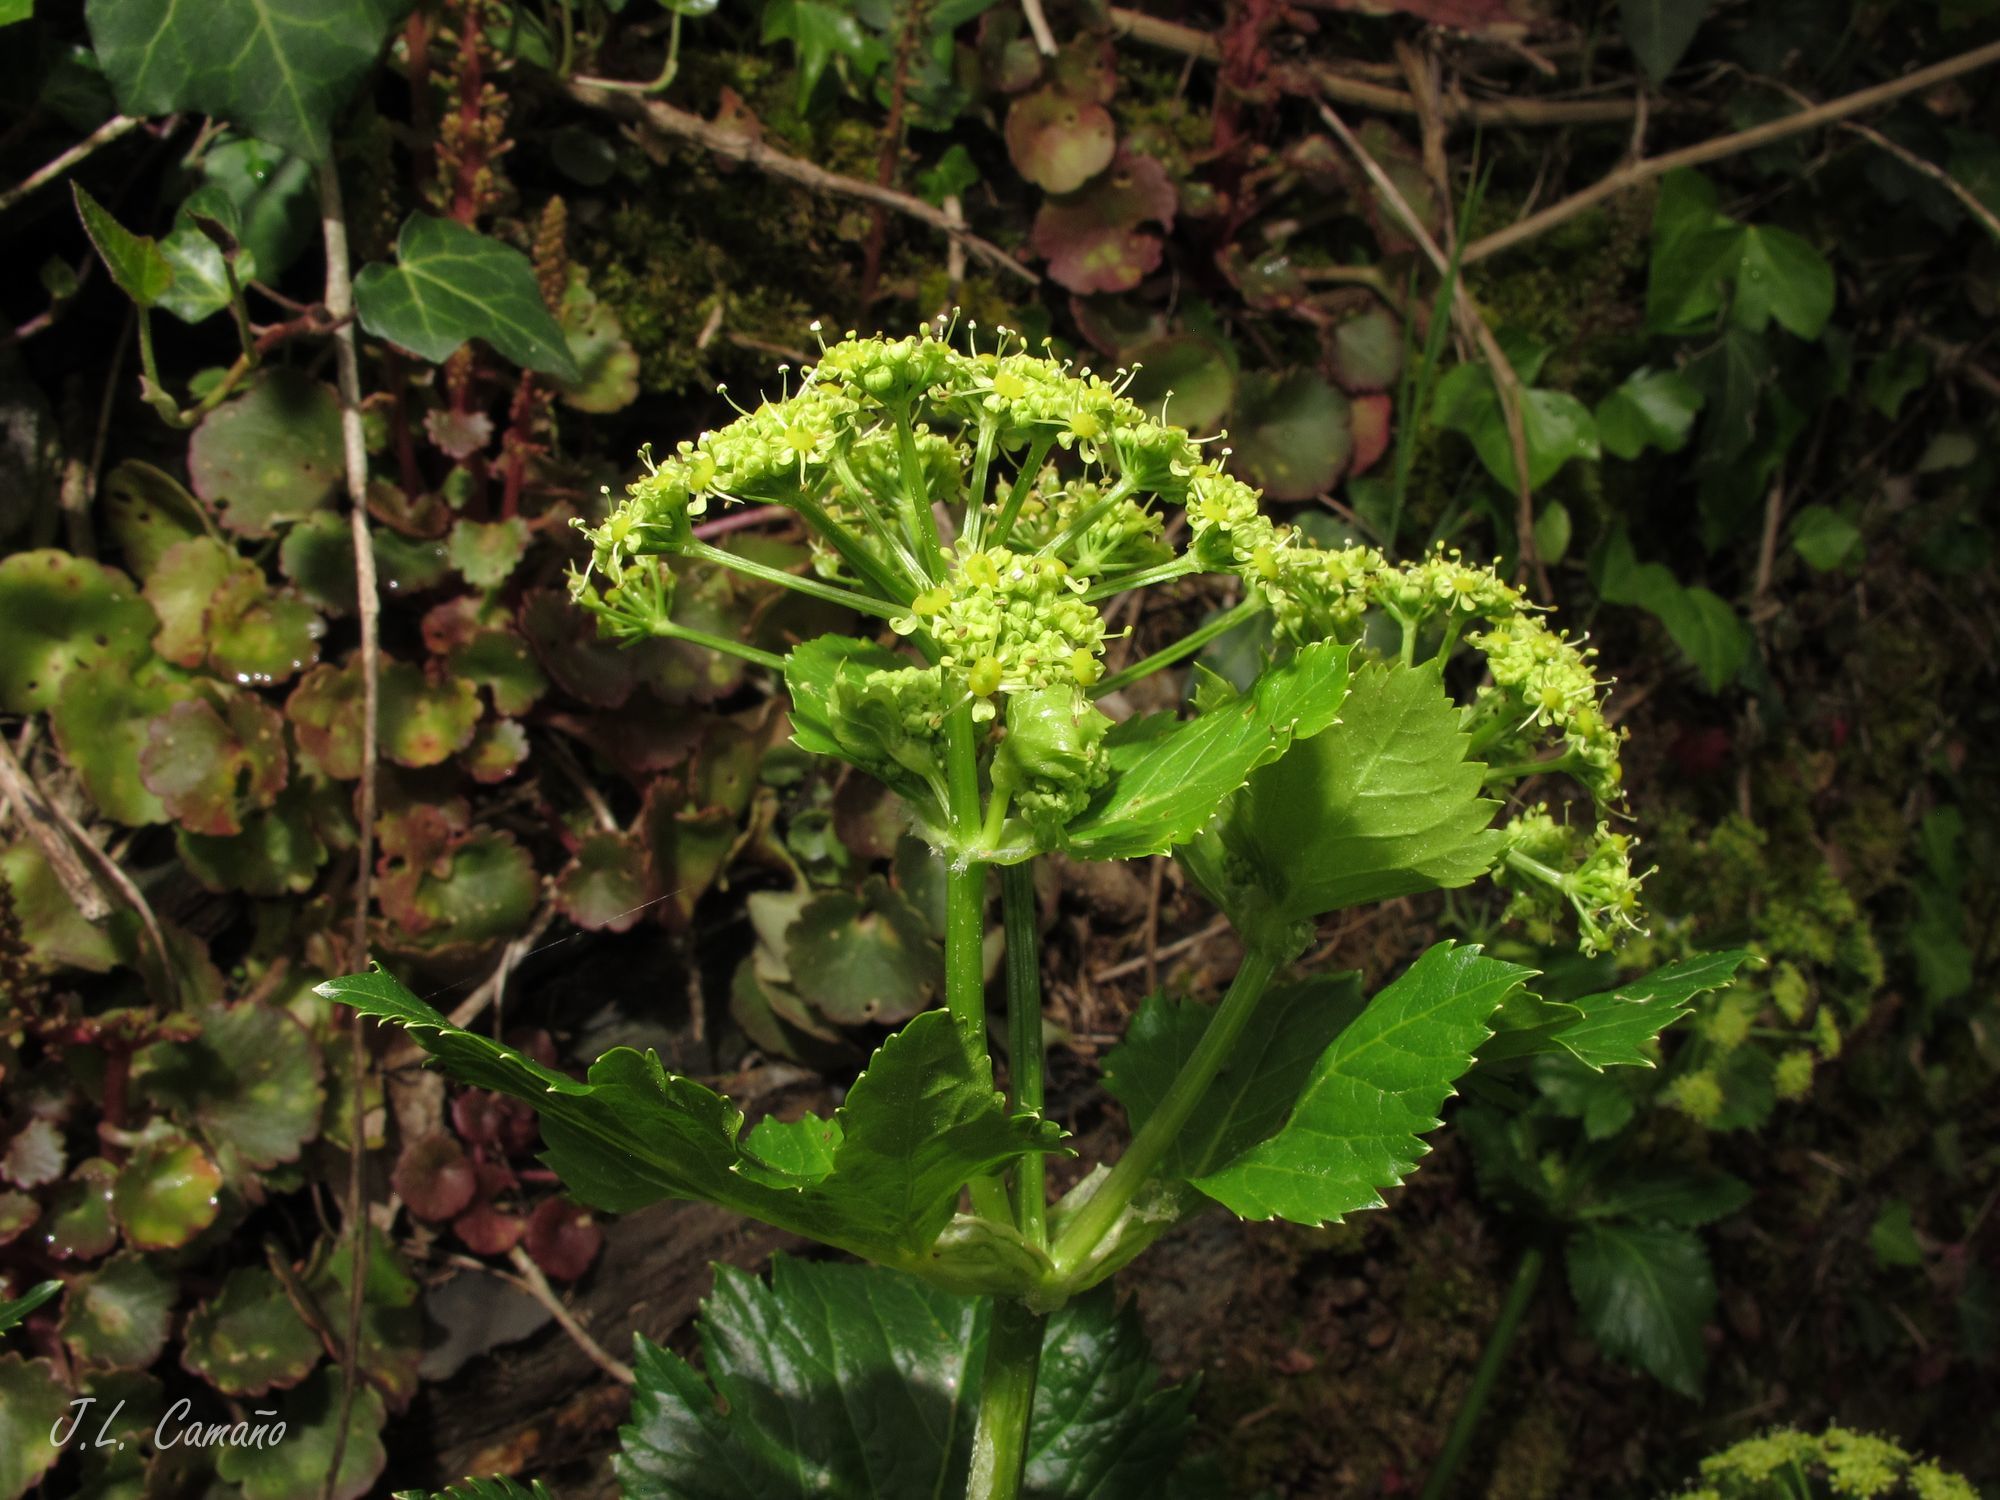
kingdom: Plantae
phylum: Tracheophyta
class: Magnoliopsida
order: Apiales
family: Apiaceae
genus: Smyrnium
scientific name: Smyrnium olusatrum
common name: Alexanders
